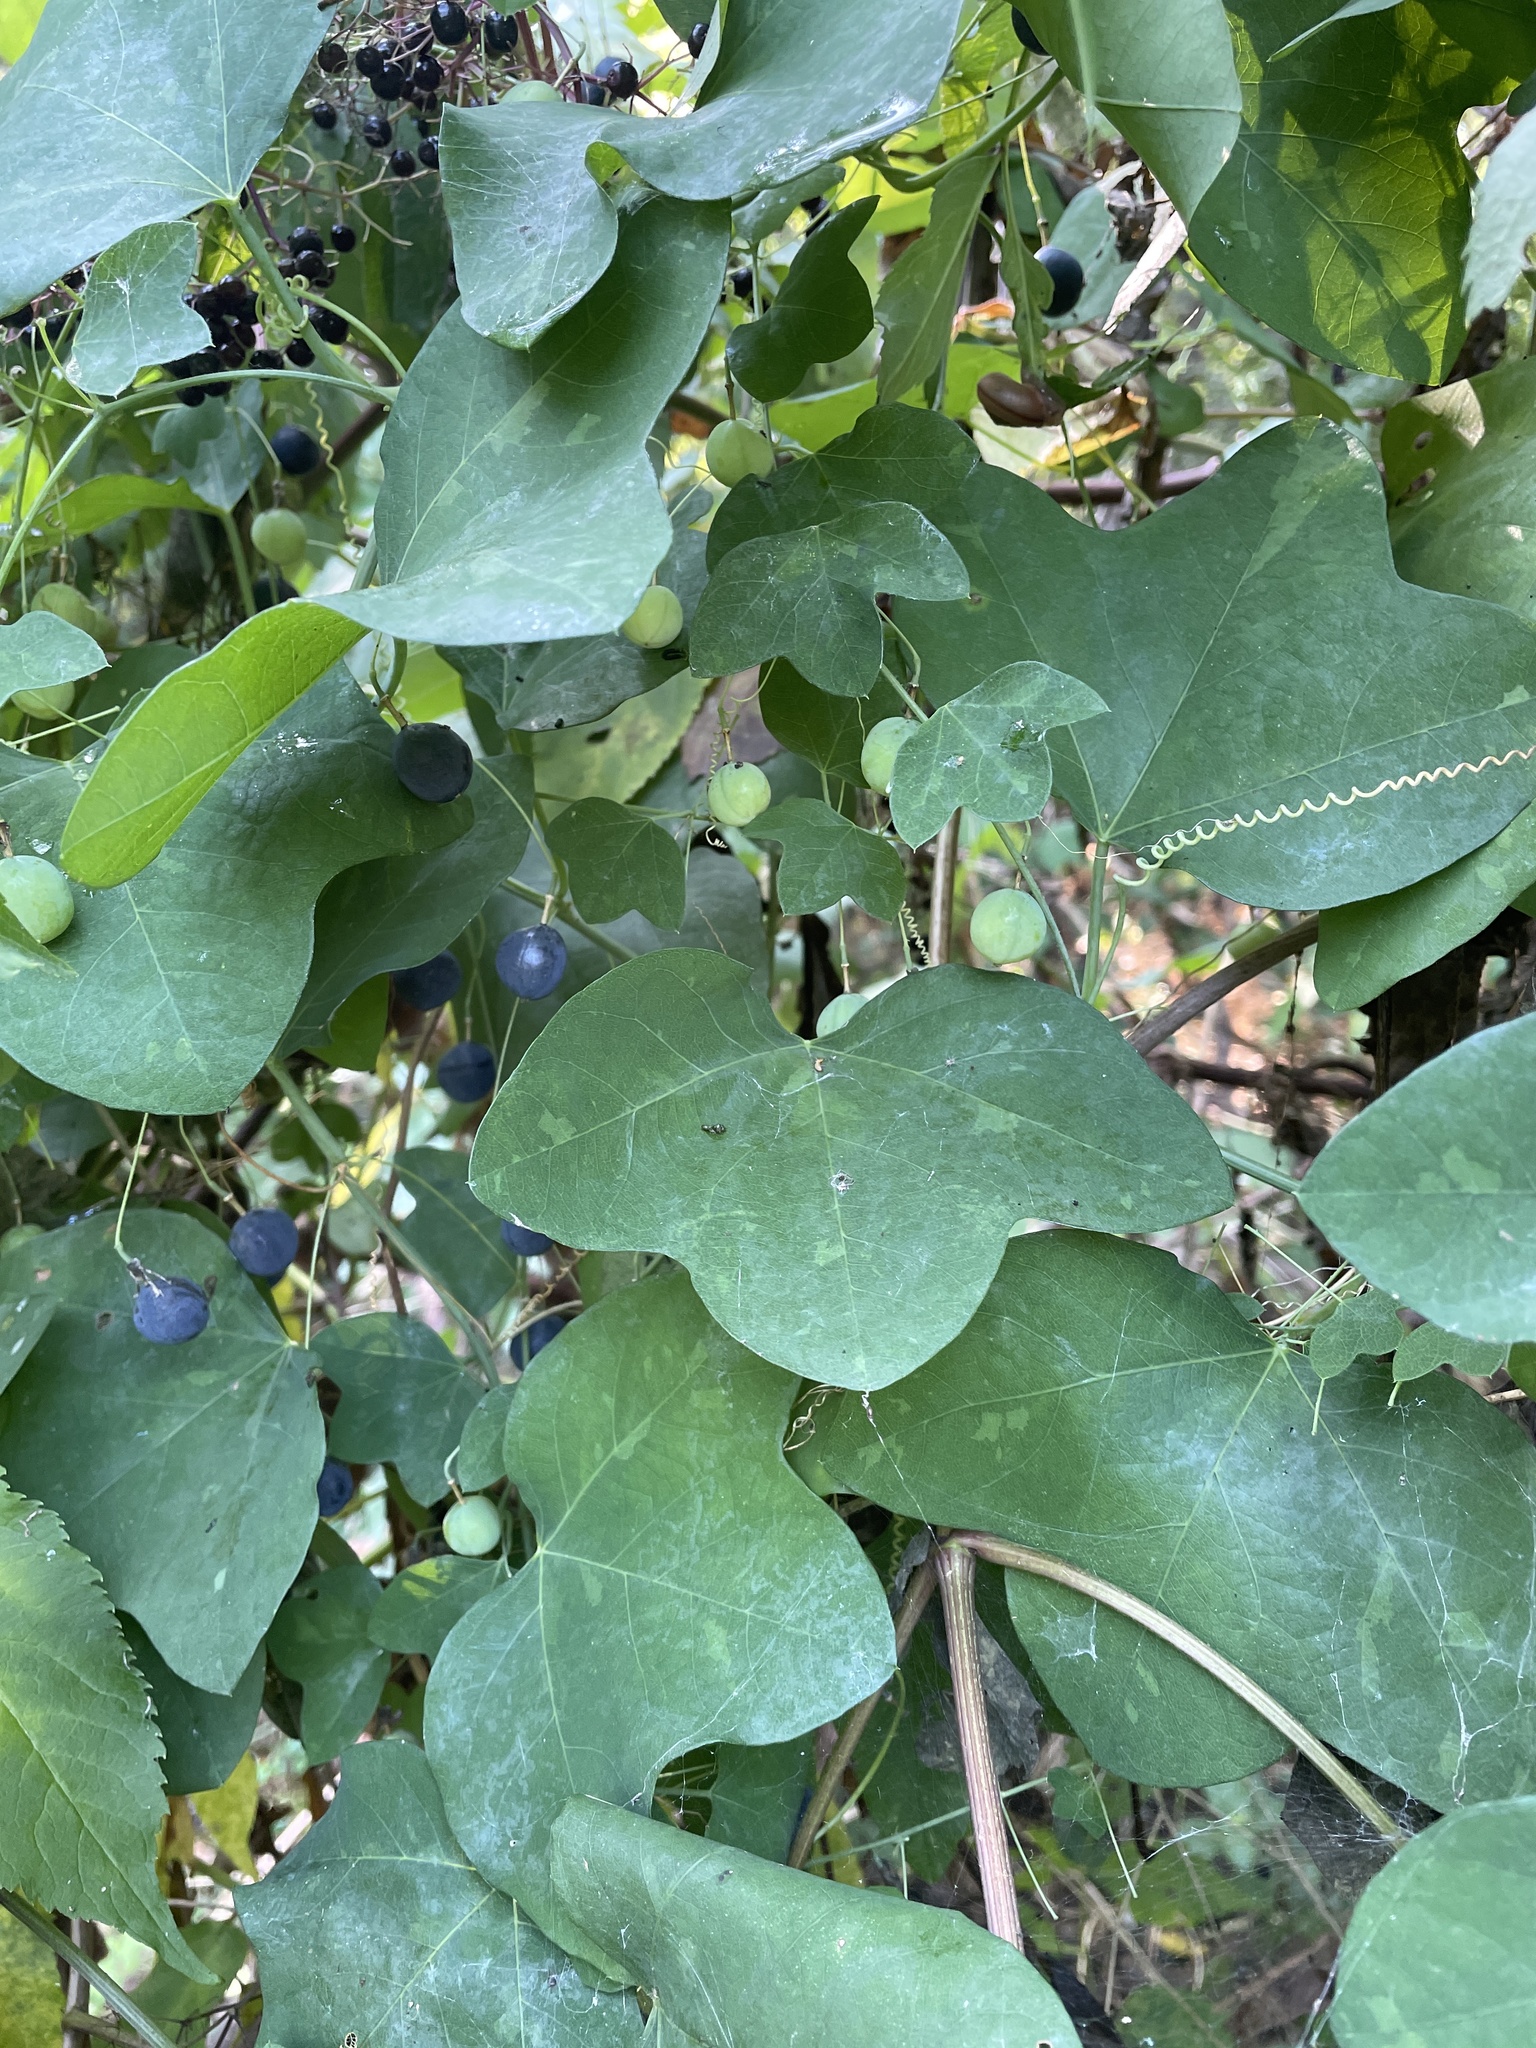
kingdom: Plantae
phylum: Tracheophyta
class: Magnoliopsida
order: Malpighiales
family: Passifloraceae
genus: Passiflora
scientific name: Passiflora lutea
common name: Yellow passionflower
